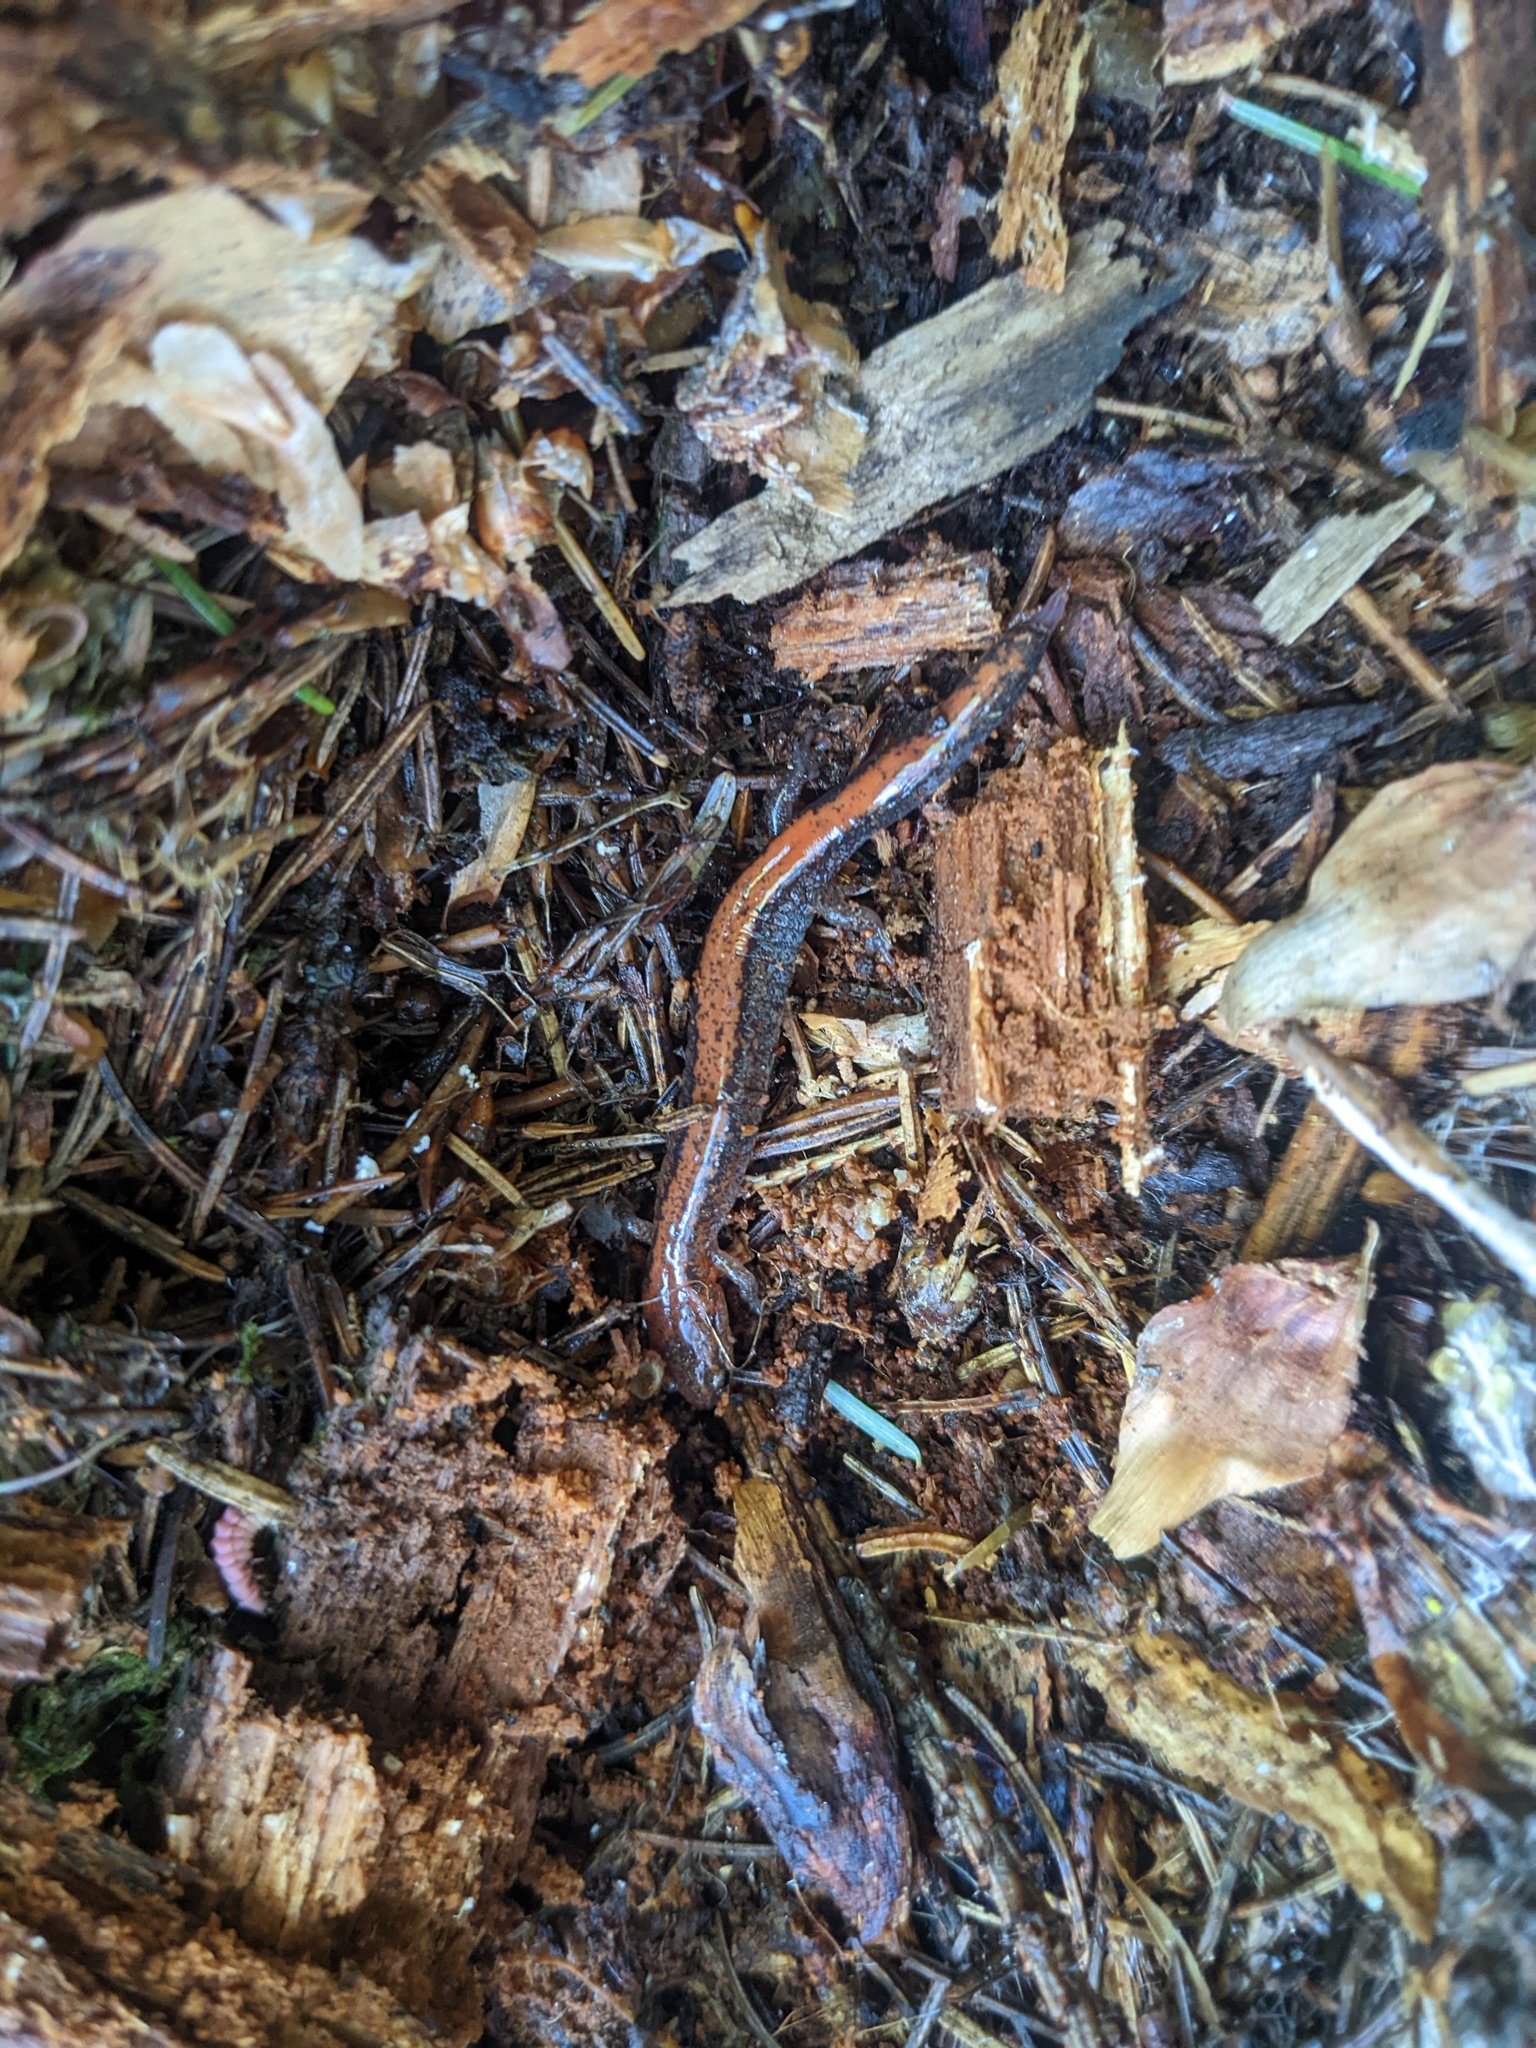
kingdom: Animalia
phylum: Chordata
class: Amphibia
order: Caudata
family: Plethodontidae
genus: Plethodon
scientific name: Plethodon cinereus
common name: Redback salamander
